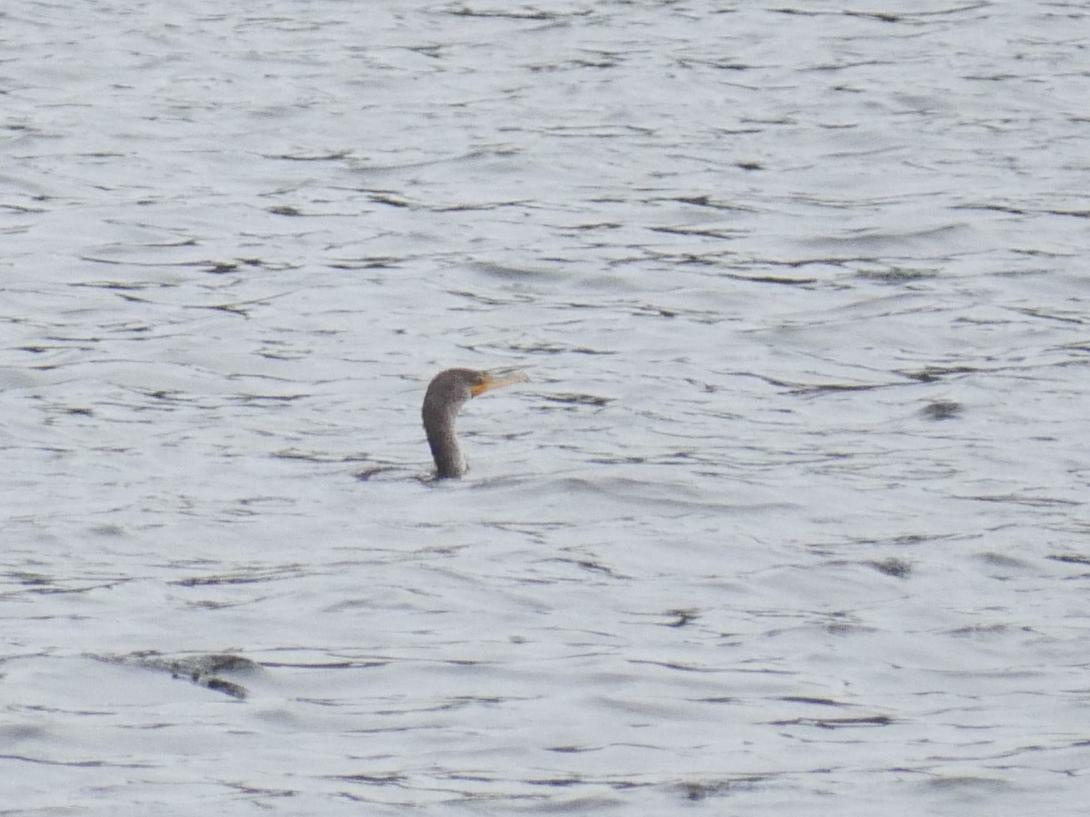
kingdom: Animalia
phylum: Chordata
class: Aves
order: Suliformes
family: Phalacrocoracidae
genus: Phalacrocorax
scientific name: Phalacrocorax auritus
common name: Double-crested cormorant
